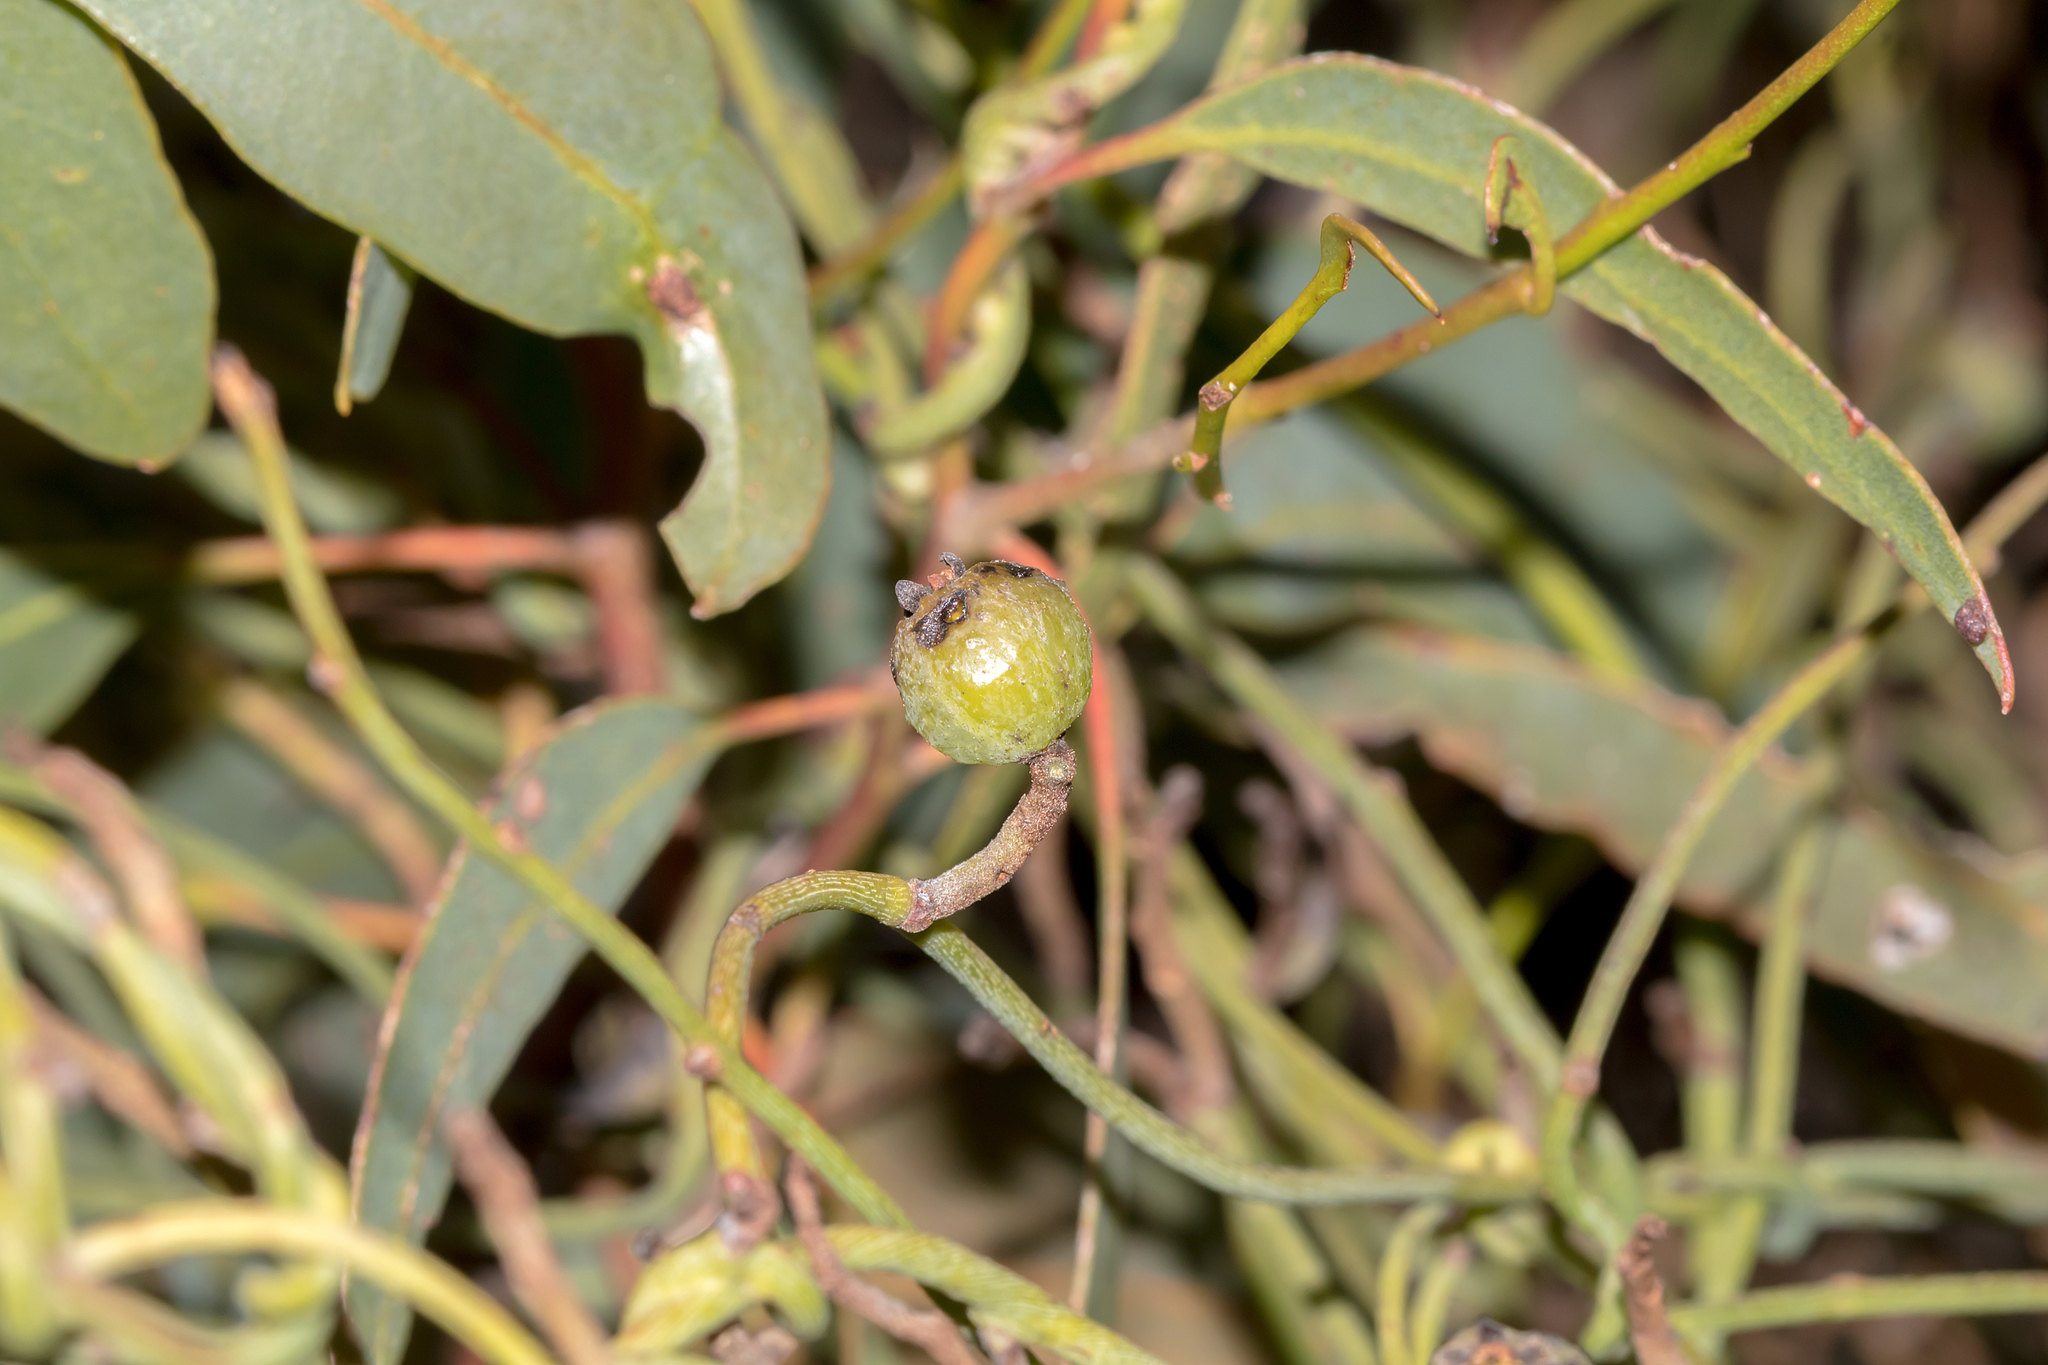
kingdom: Plantae
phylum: Tracheophyta
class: Magnoliopsida
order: Laurales
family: Lauraceae
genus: Cassytha
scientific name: Cassytha melantha
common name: Mallee stranglevine
